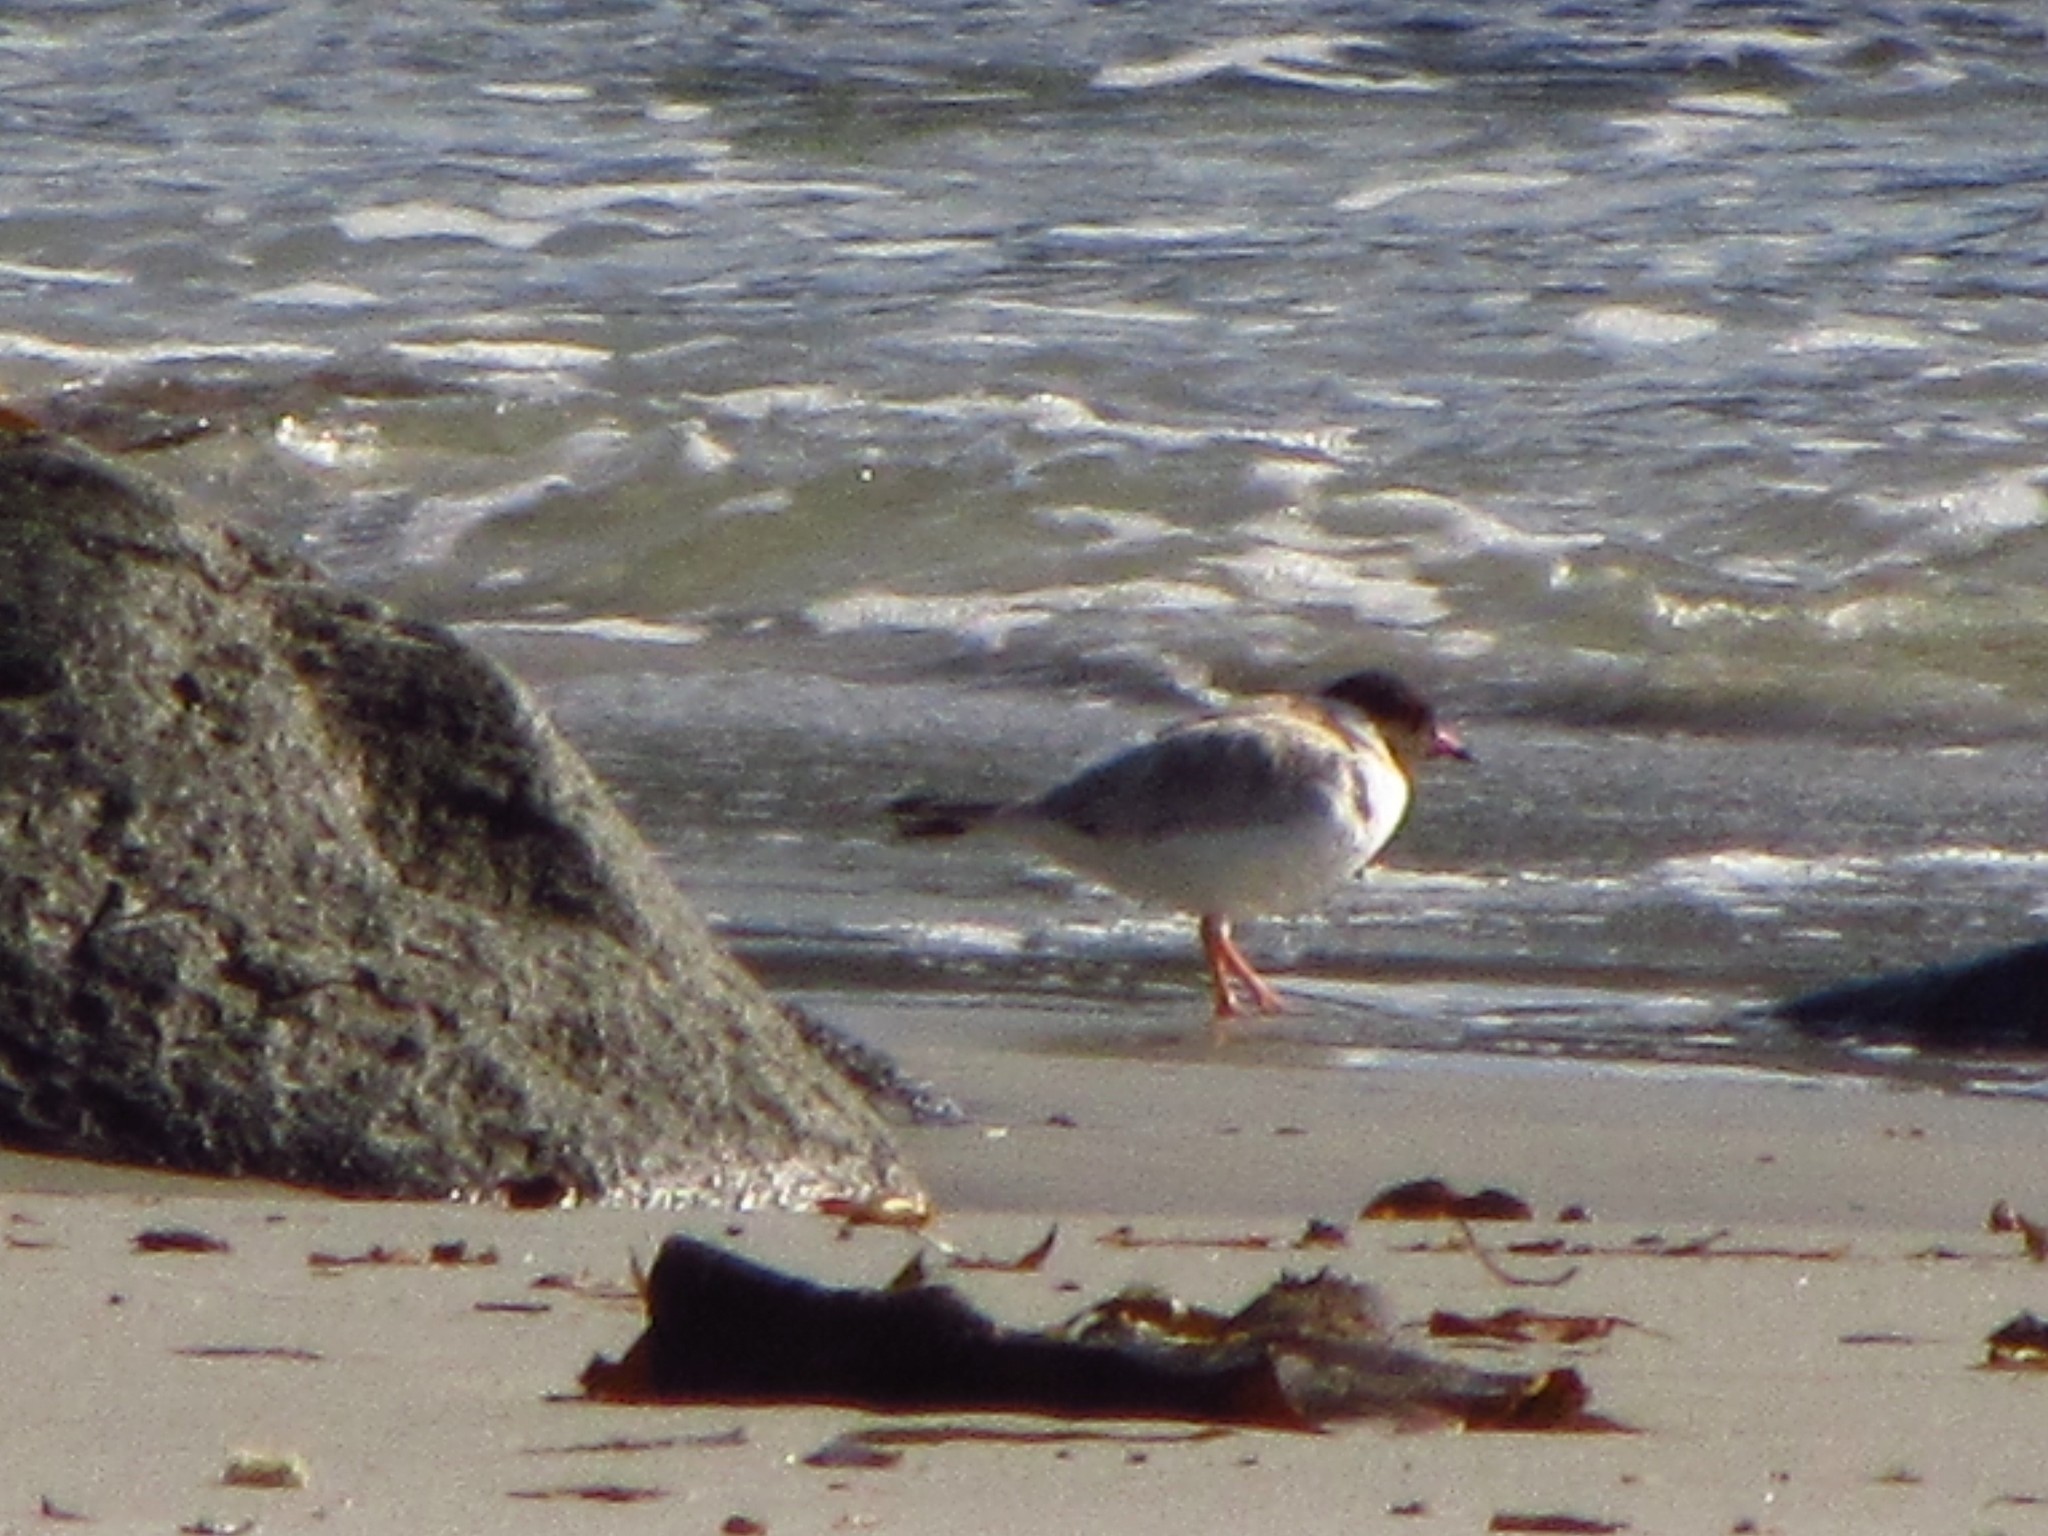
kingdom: Animalia
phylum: Chordata
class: Aves
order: Charadriiformes
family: Charadriidae
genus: Thinornis
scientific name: Thinornis cucullatus
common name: Hooded dotterel
